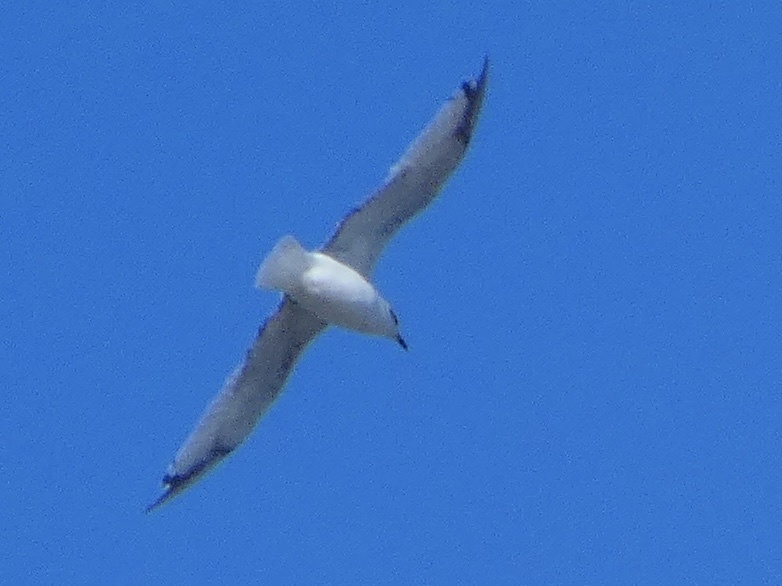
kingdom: Animalia
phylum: Chordata
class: Aves
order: Charadriiformes
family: Laridae
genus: Ichthyaetus
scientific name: Ichthyaetus melanocephalus
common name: Mediterranean gull
